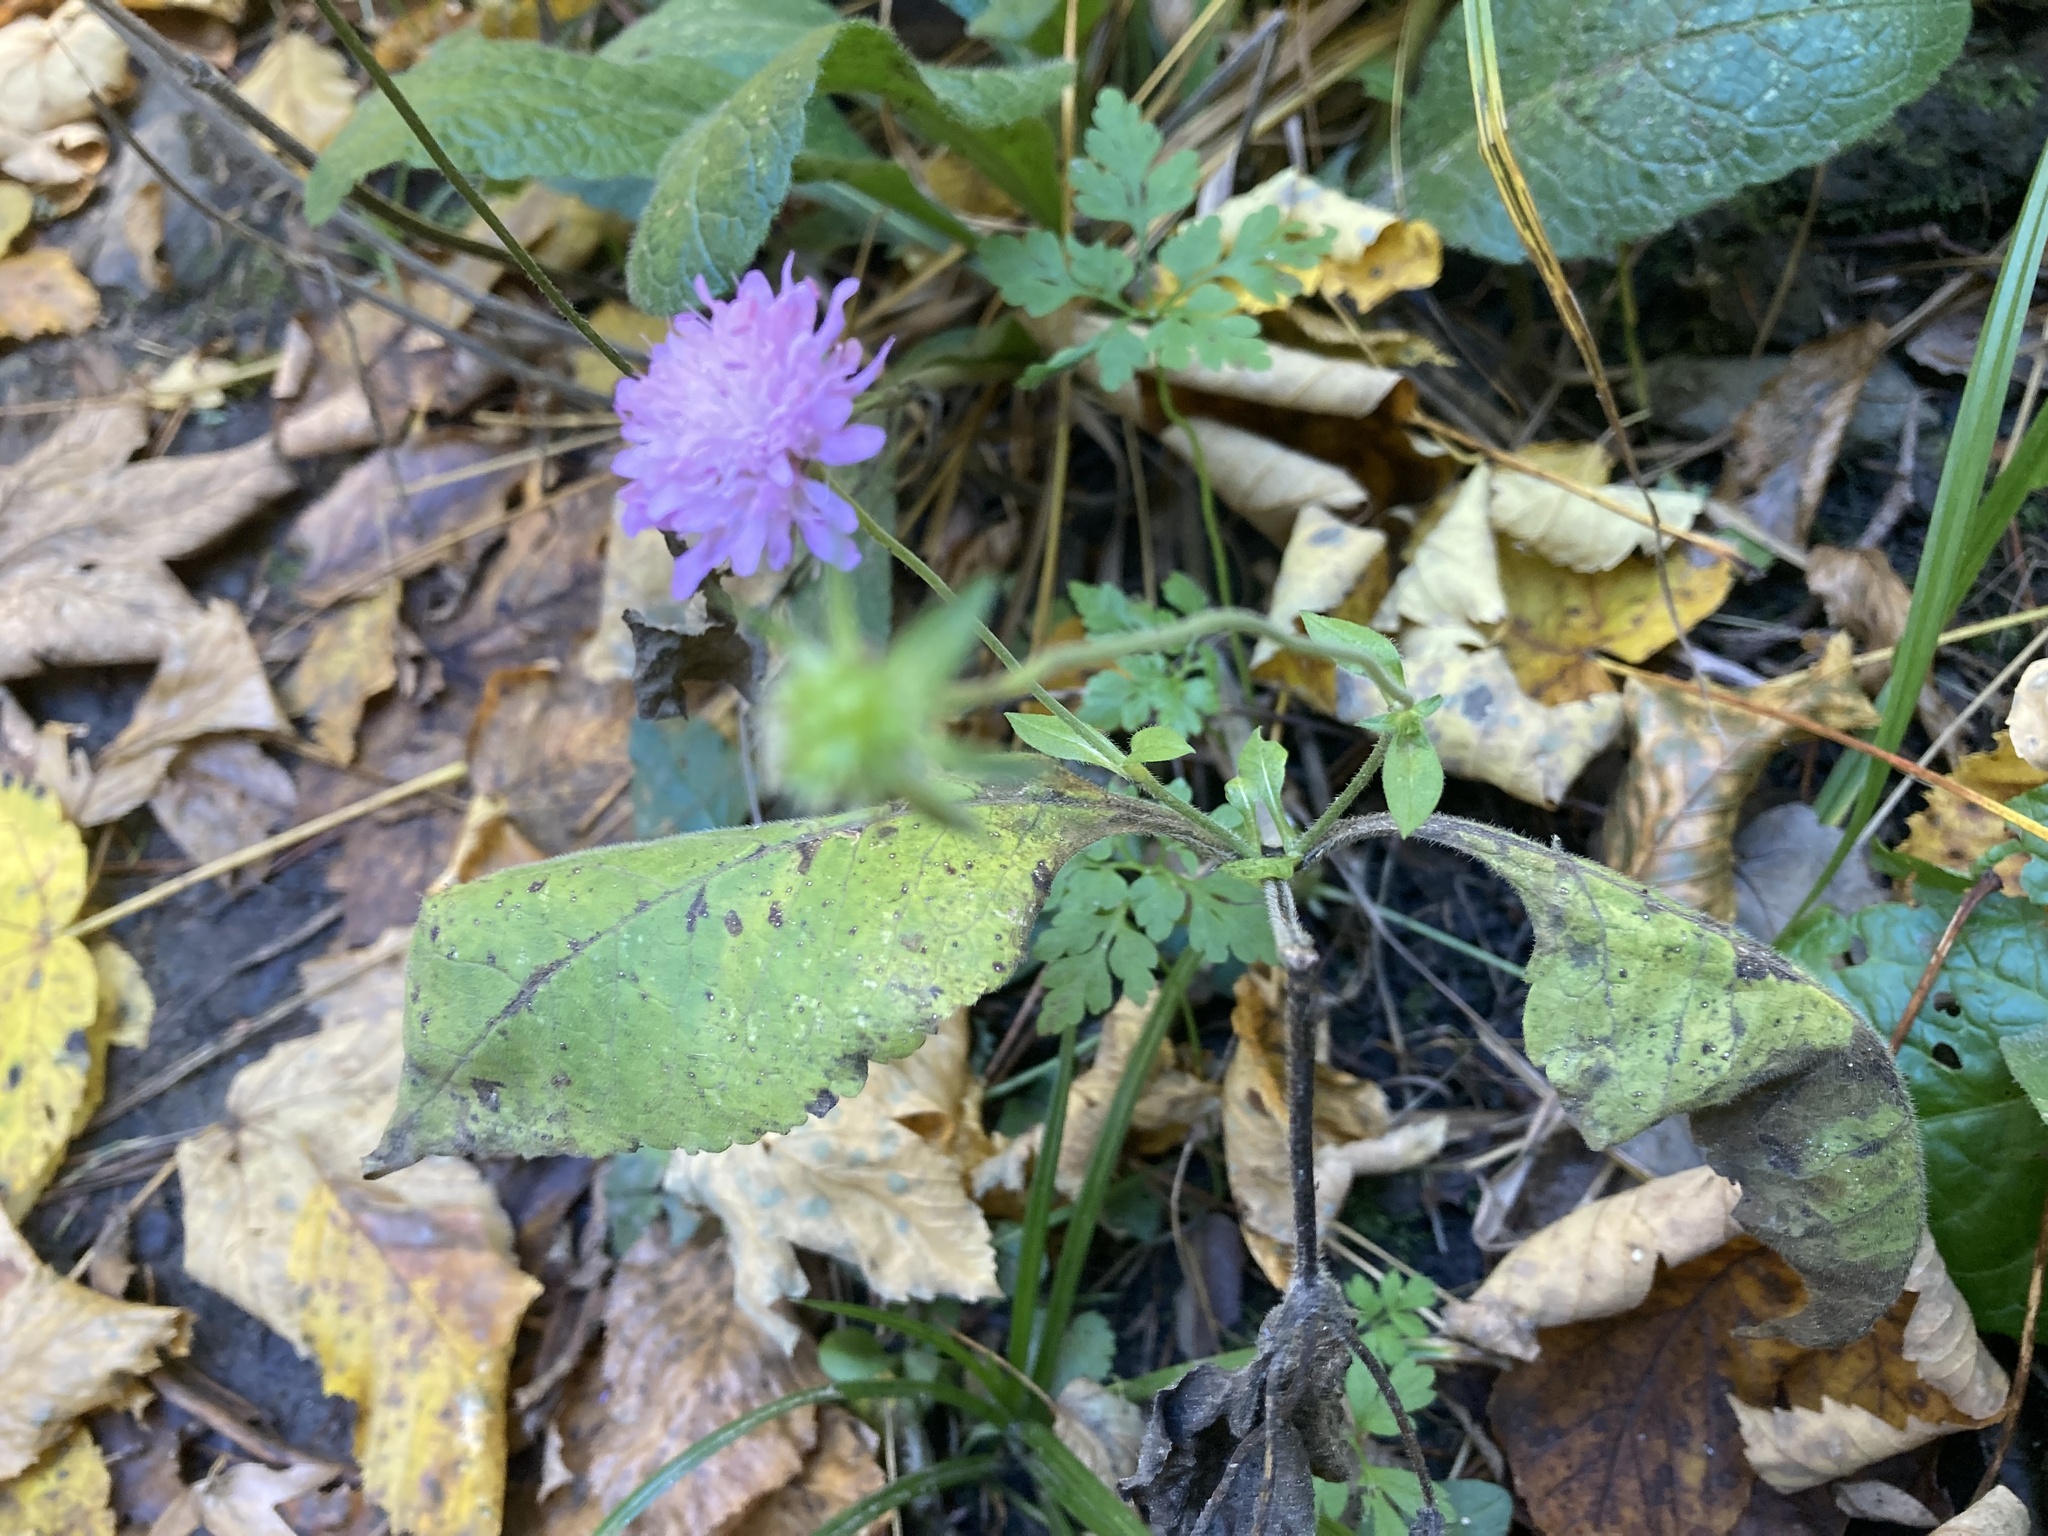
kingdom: Plantae
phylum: Tracheophyta
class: Magnoliopsida
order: Dipsacales
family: Caprifoliaceae
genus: Knautia
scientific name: Knautia arvensis
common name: Field scabiosa
